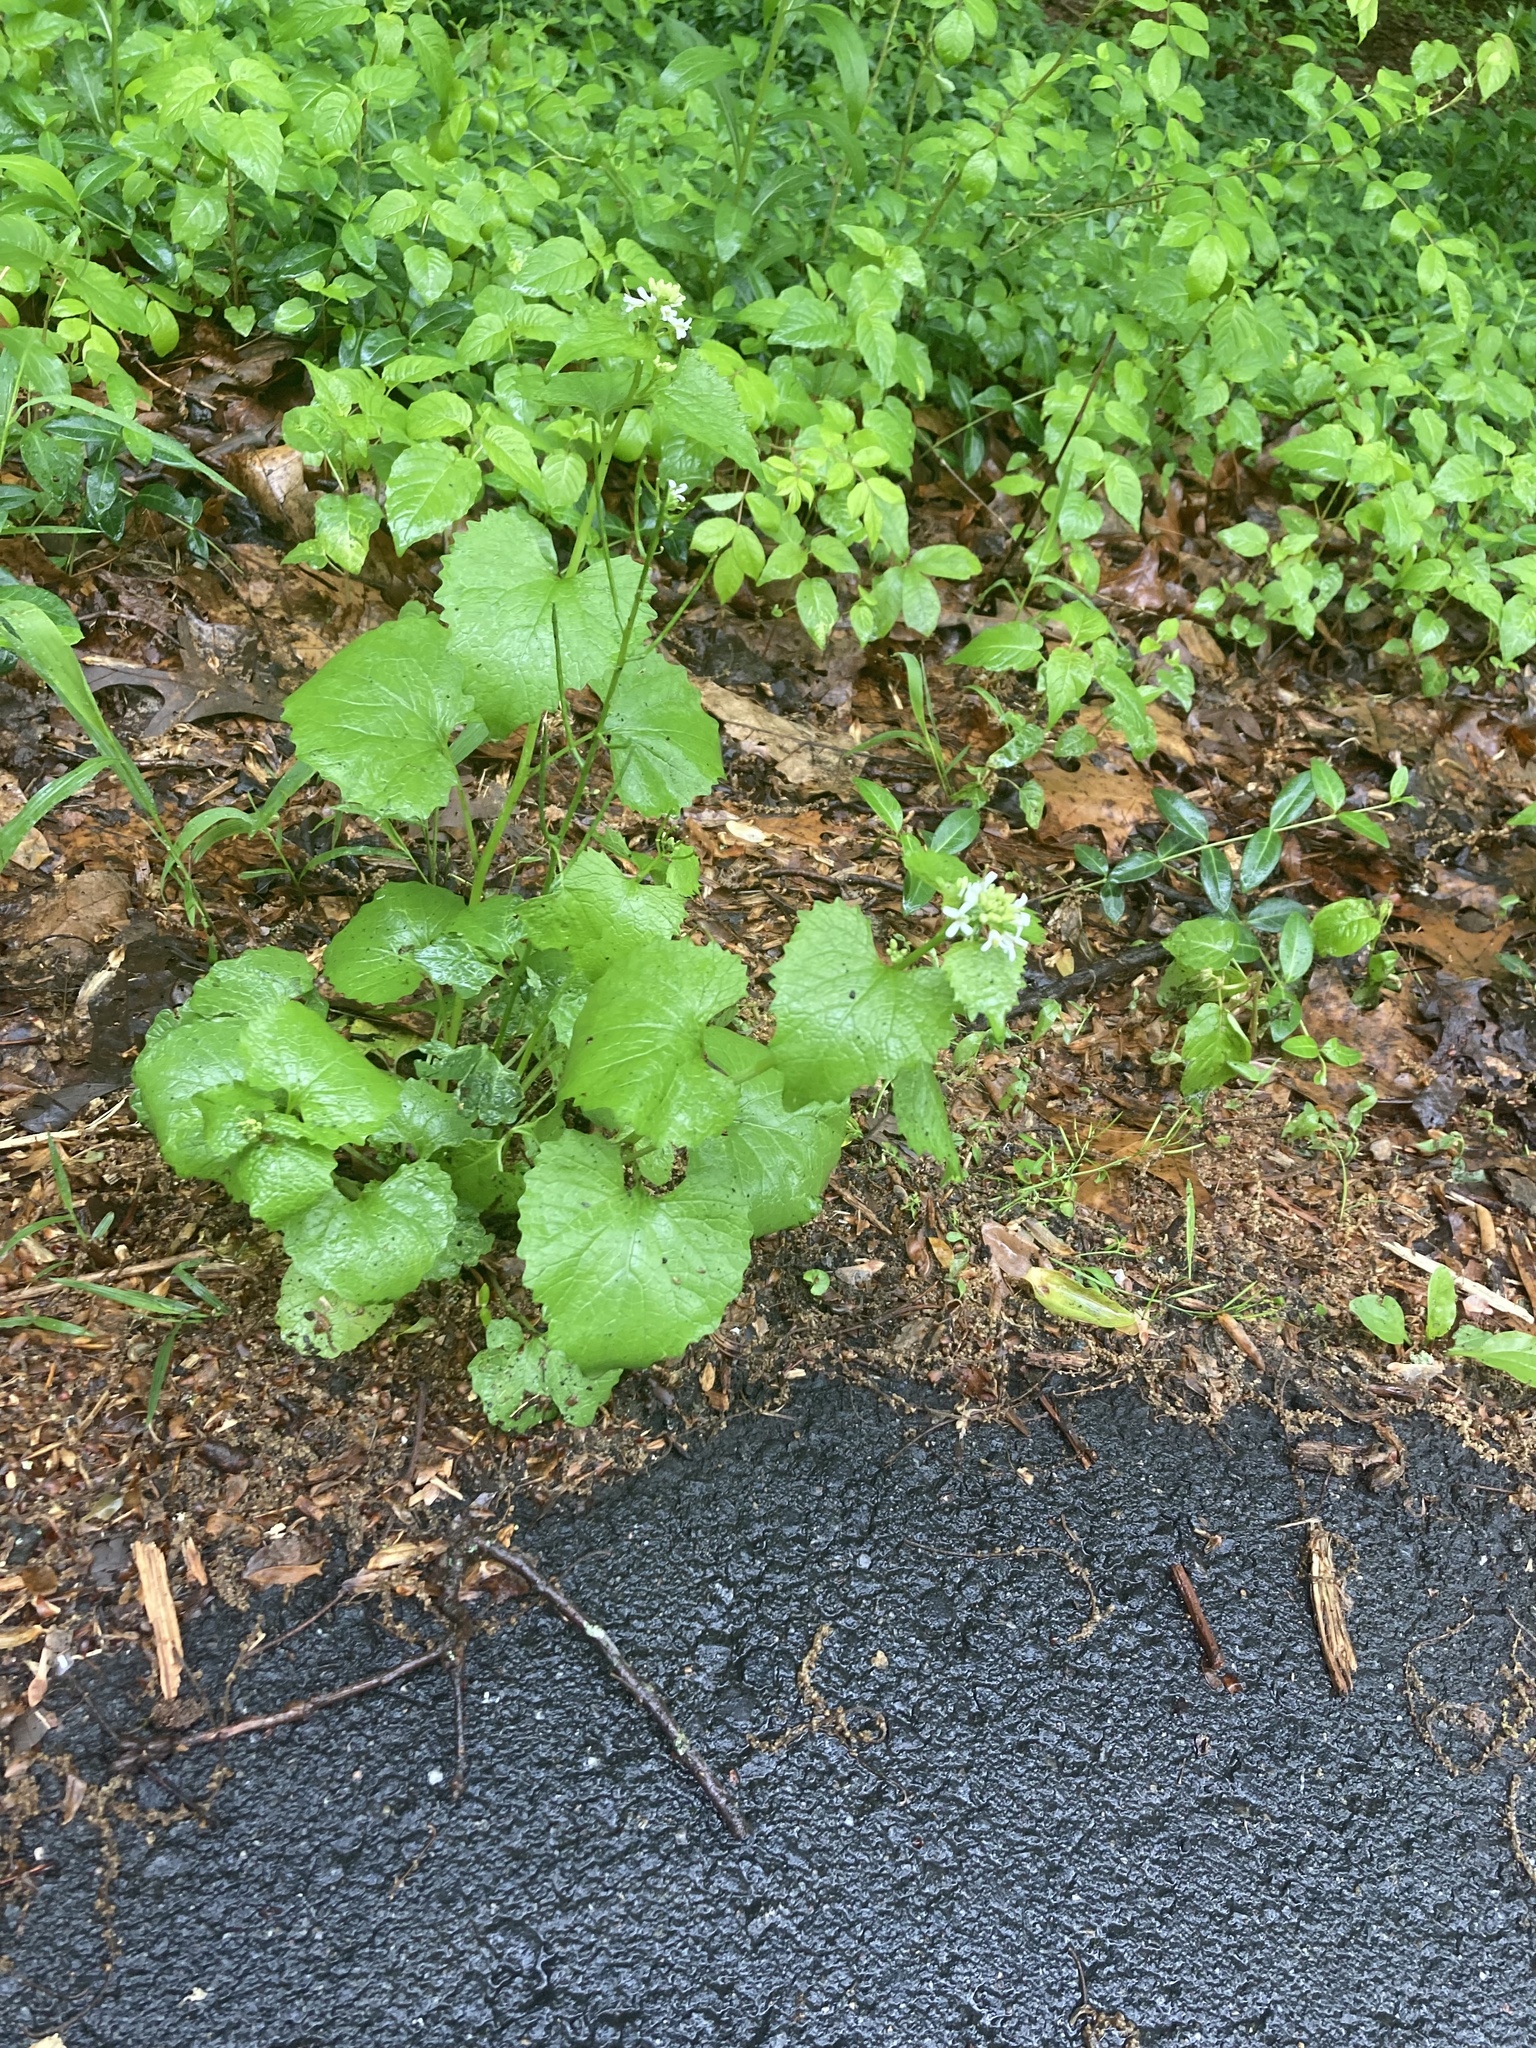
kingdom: Plantae
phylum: Tracheophyta
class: Magnoliopsida
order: Brassicales
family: Brassicaceae
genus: Alliaria
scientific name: Alliaria petiolata
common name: Garlic mustard
